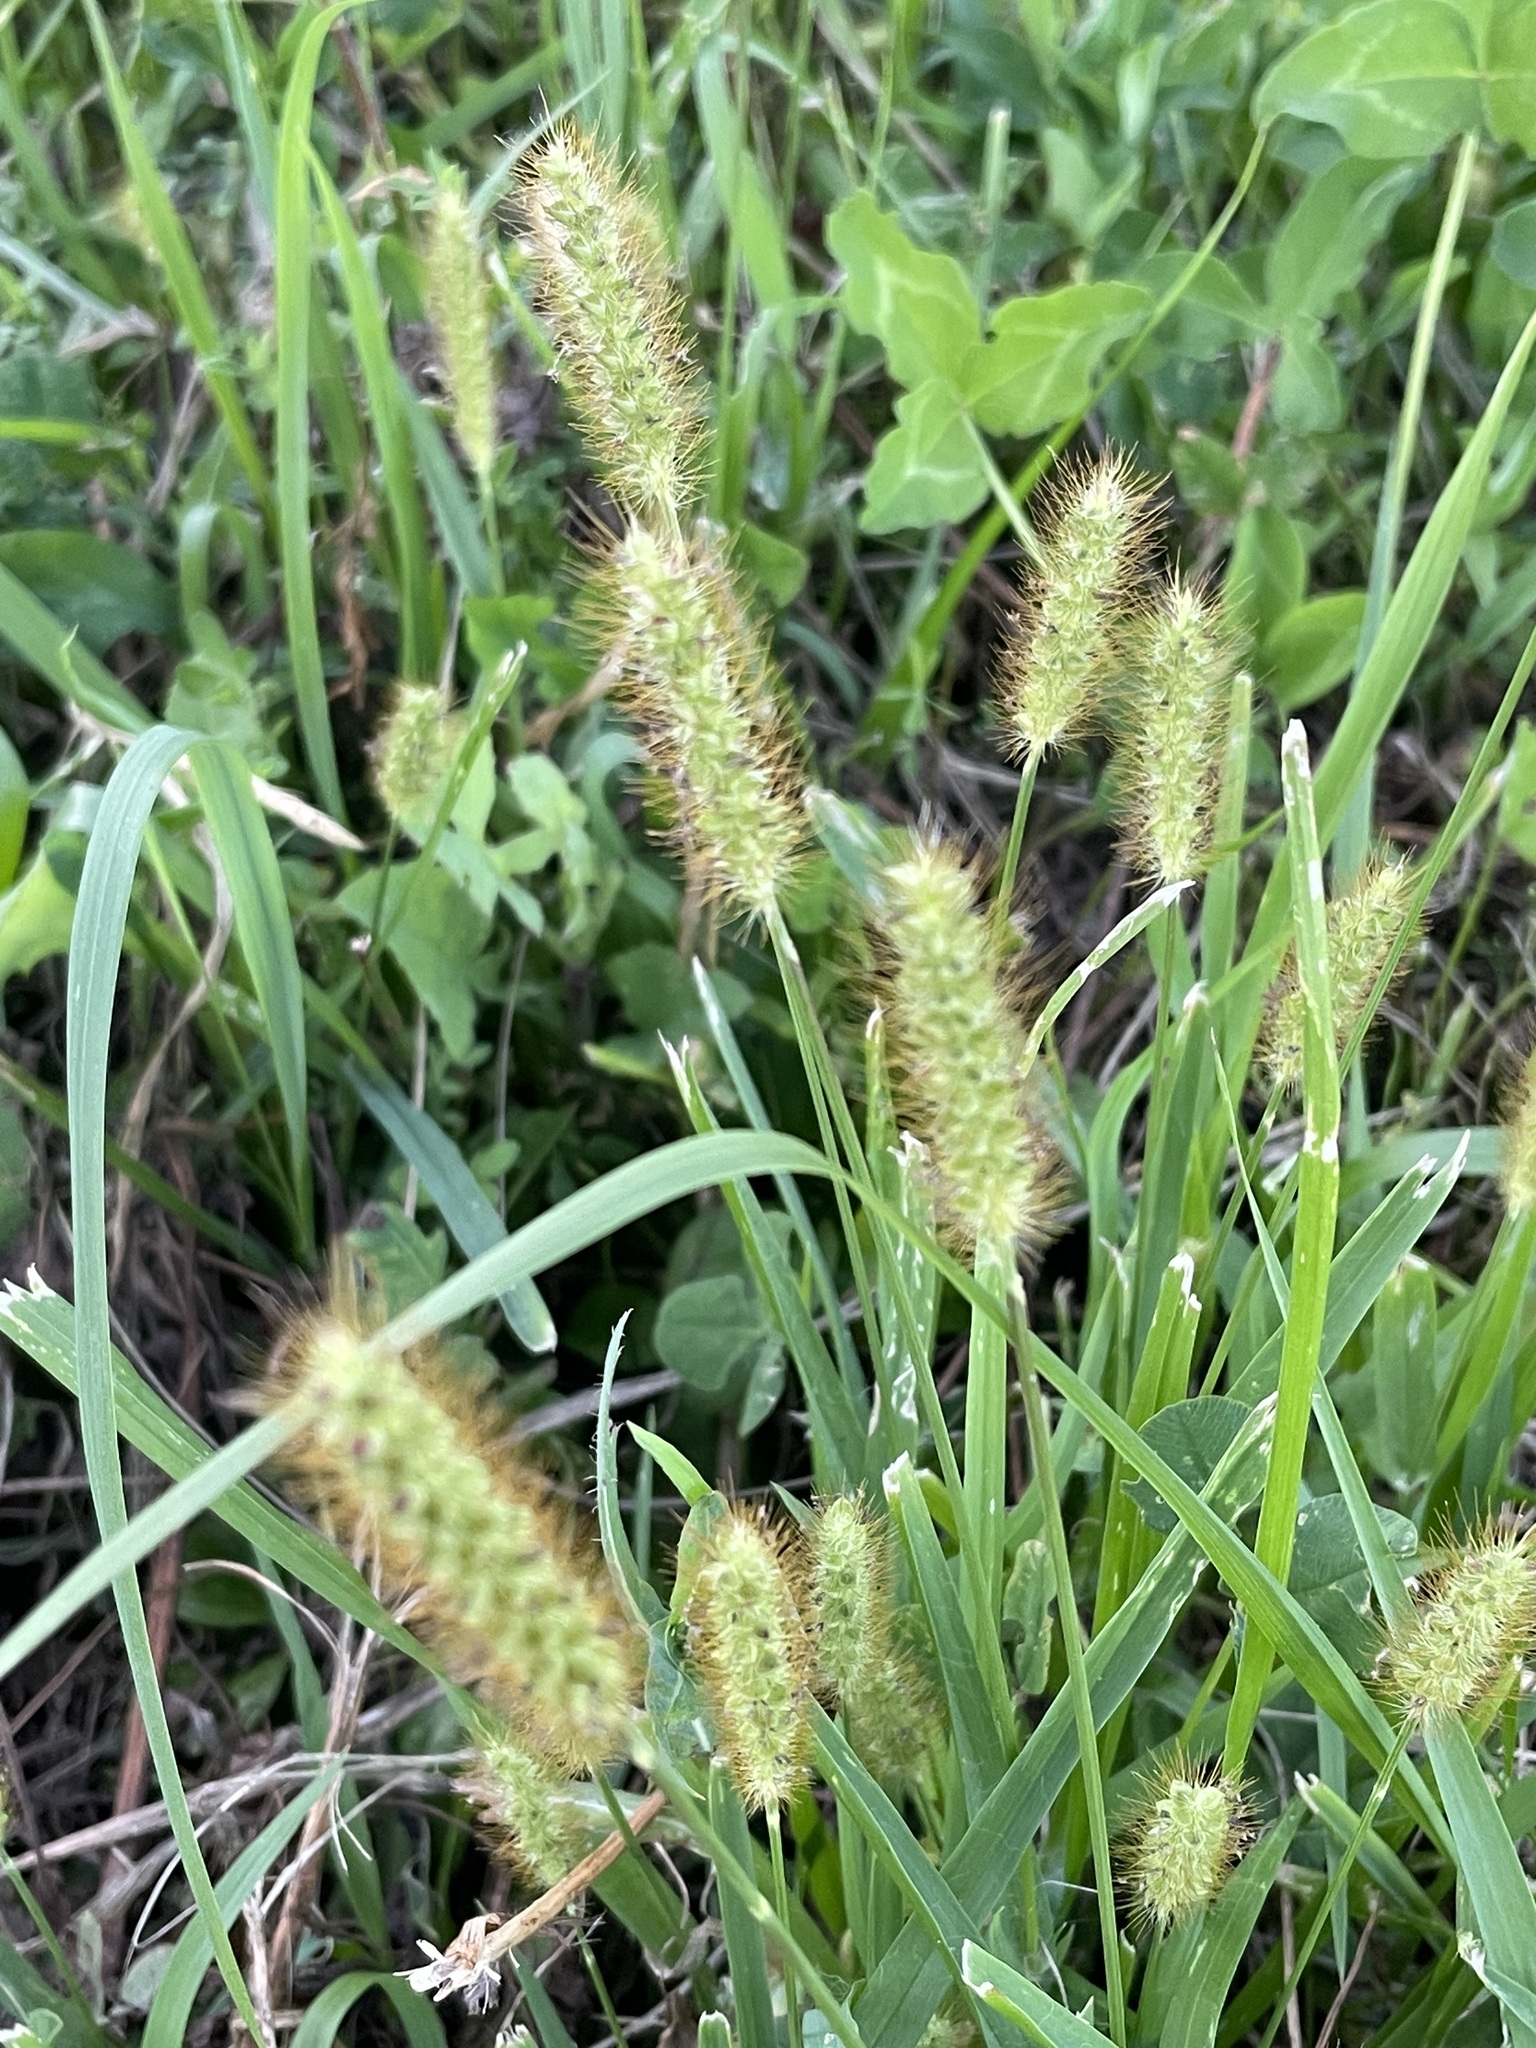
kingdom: Plantae
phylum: Tracheophyta
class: Liliopsida
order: Poales
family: Poaceae
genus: Setaria
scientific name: Setaria pumila
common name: Yellow bristle-grass
